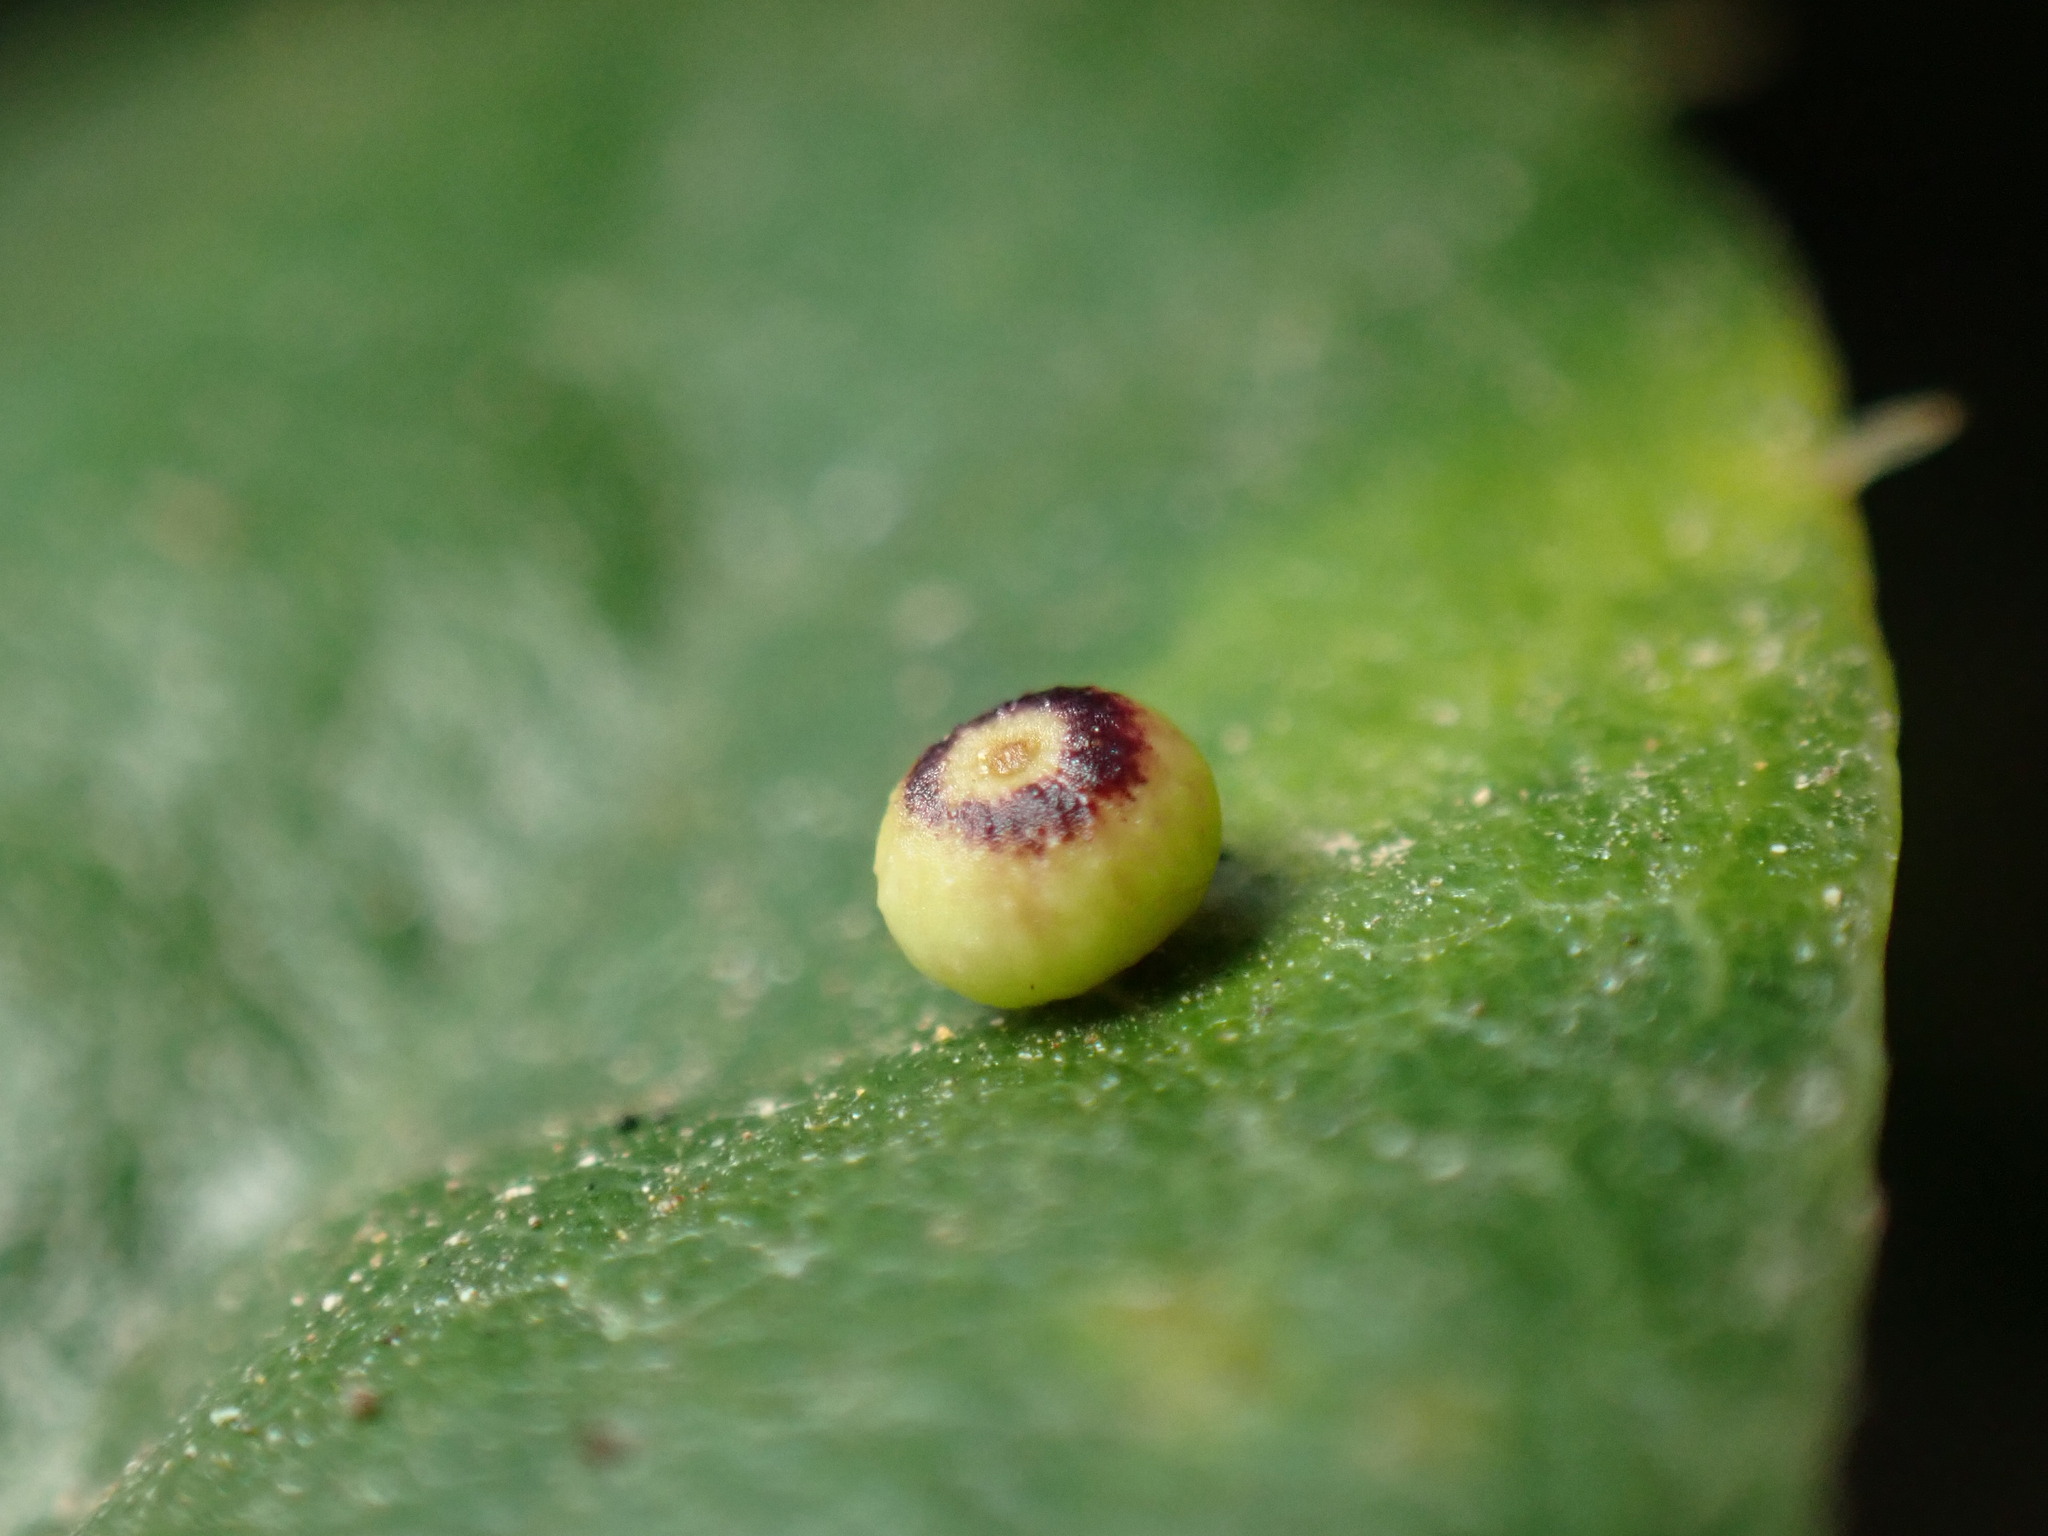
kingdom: Animalia
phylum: Arthropoda
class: Insecta
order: Hymenoptera
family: Cynipidae
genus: Dryocosmus
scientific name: Dryocosmus
